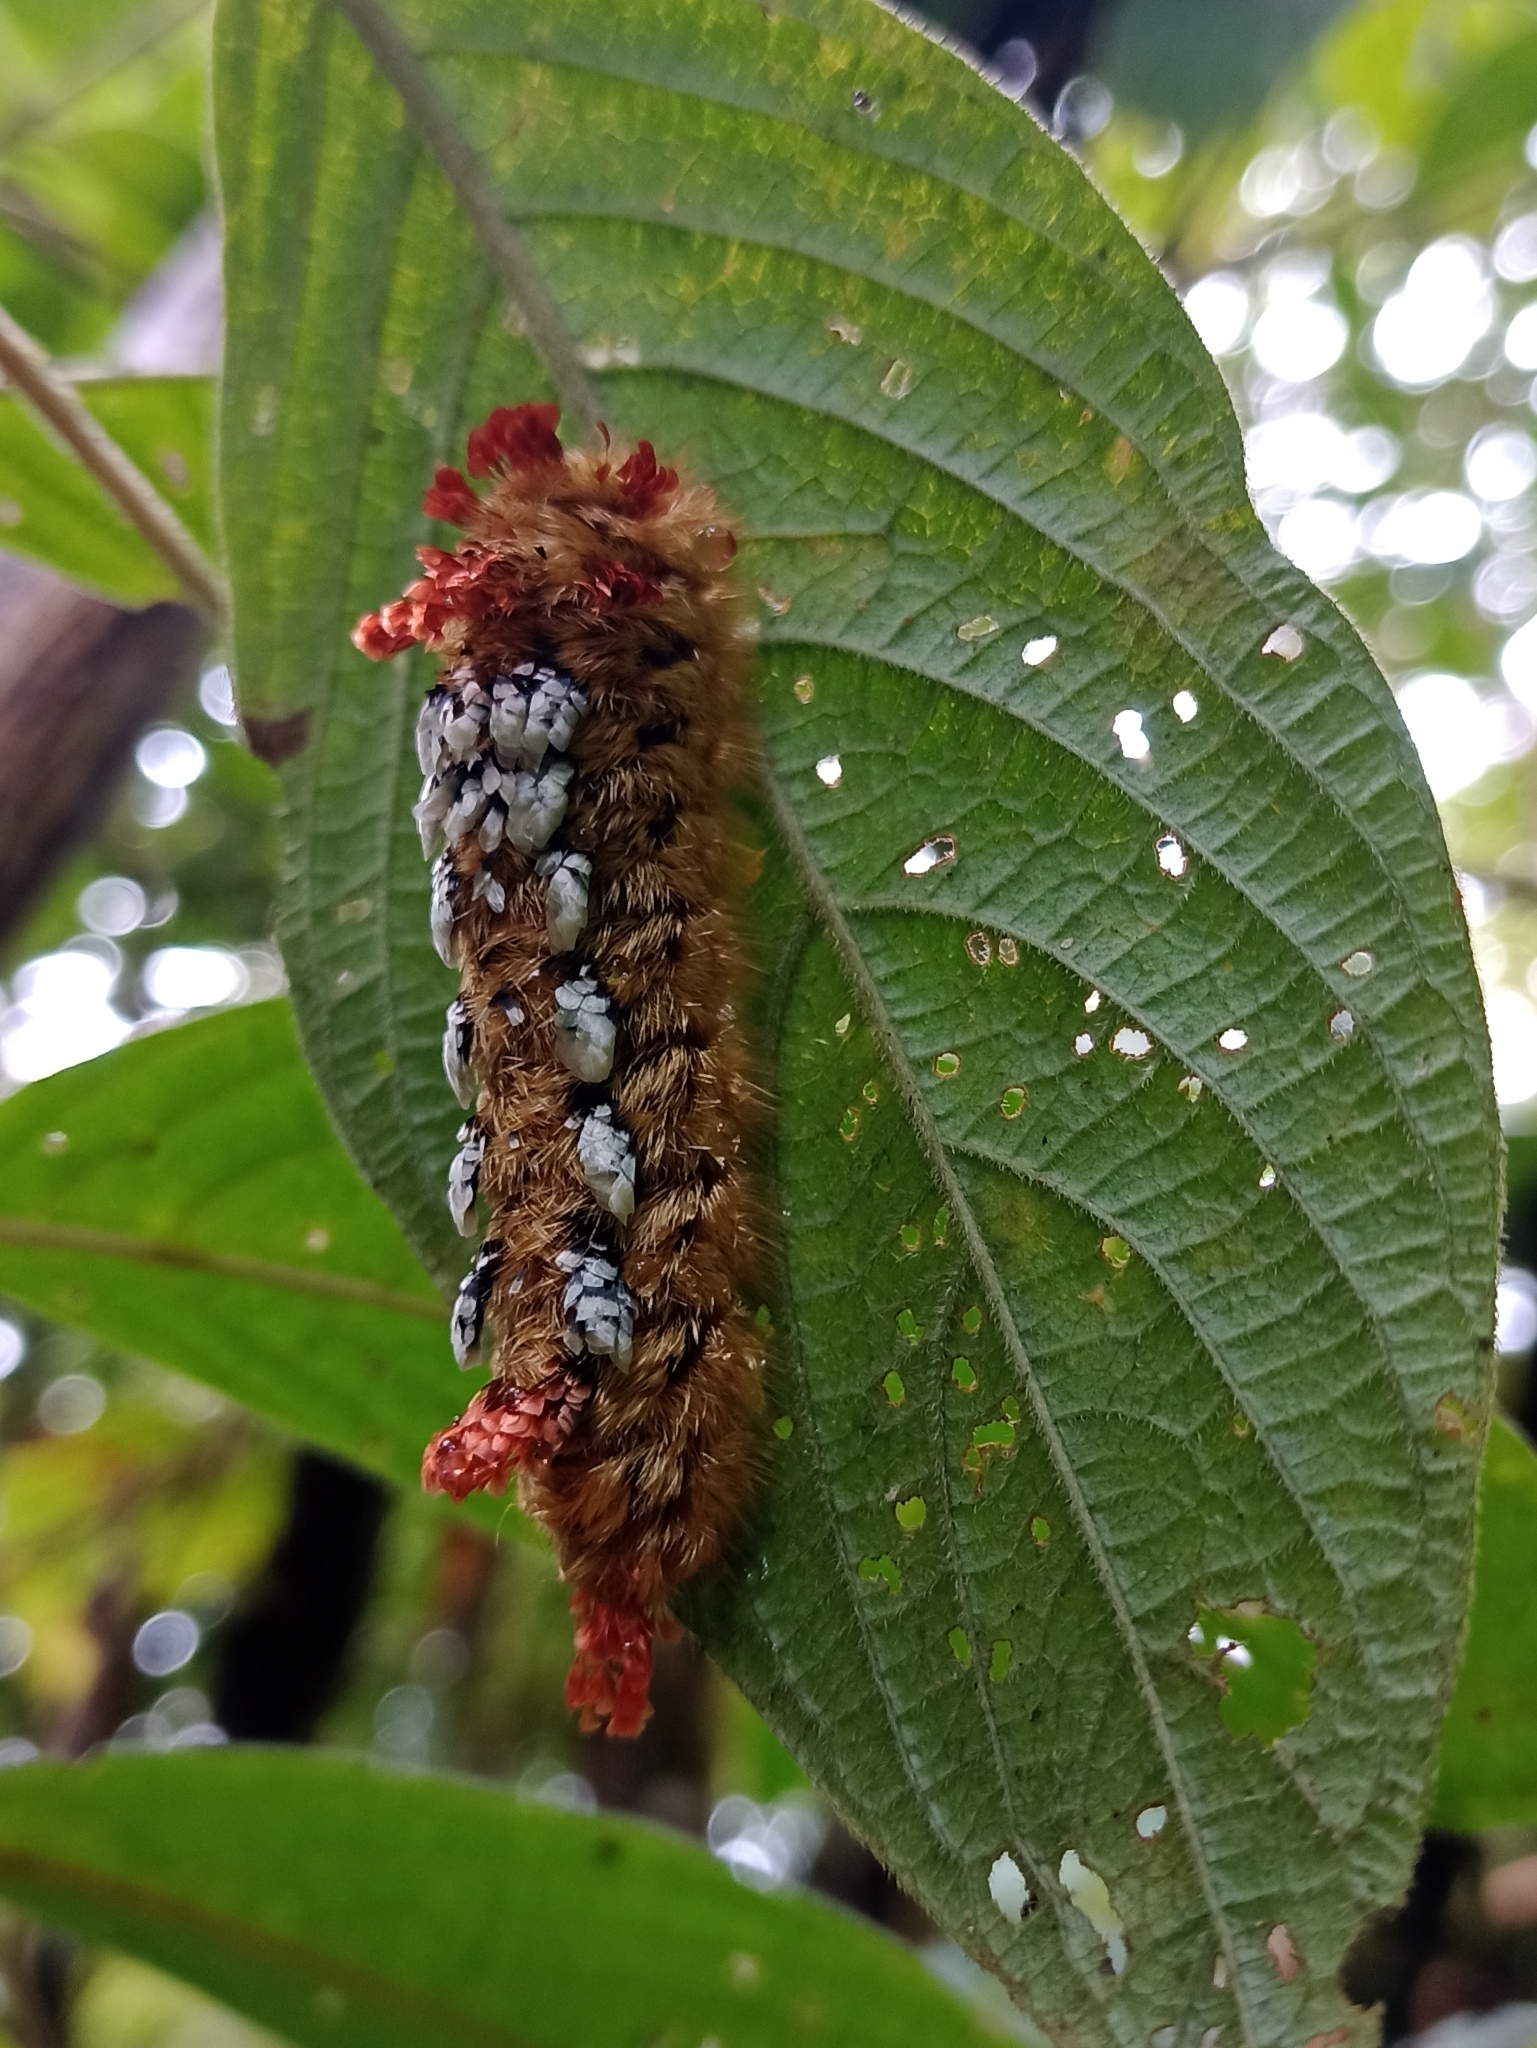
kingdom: Animalia
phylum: Arthropoda
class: Insecta
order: Lepidoptera
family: Bombycidae
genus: Prothysana
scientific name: Prothysana
